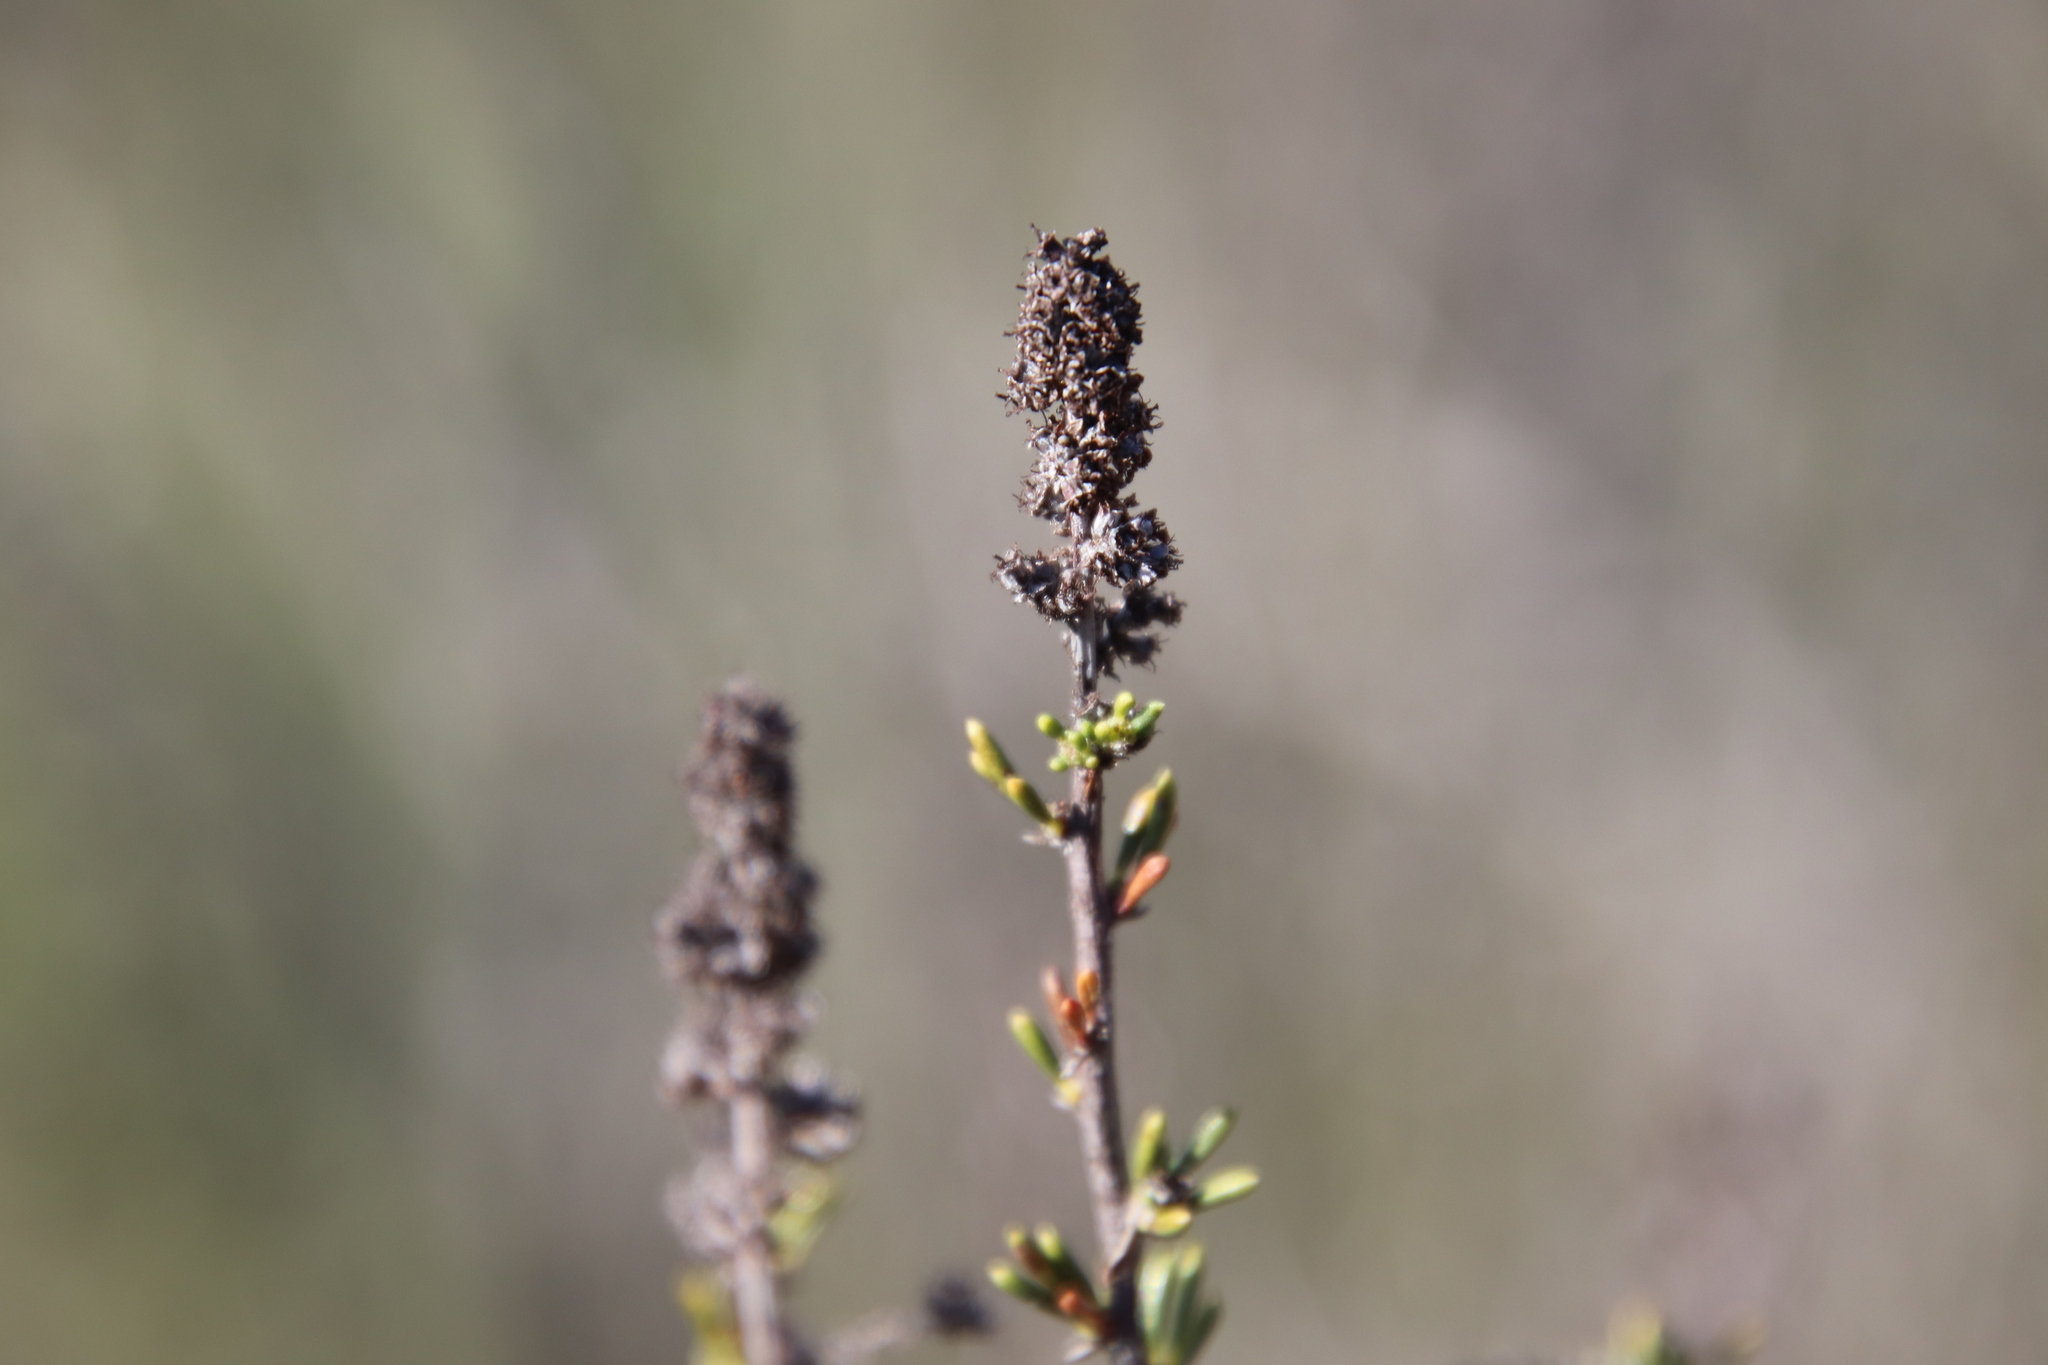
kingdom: Plantae
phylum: Tracheophyta
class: Magnoliopsida
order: Rosales
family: Rosaceae
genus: Adenostoma
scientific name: Adenostoma fasciculatum
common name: Chamise
